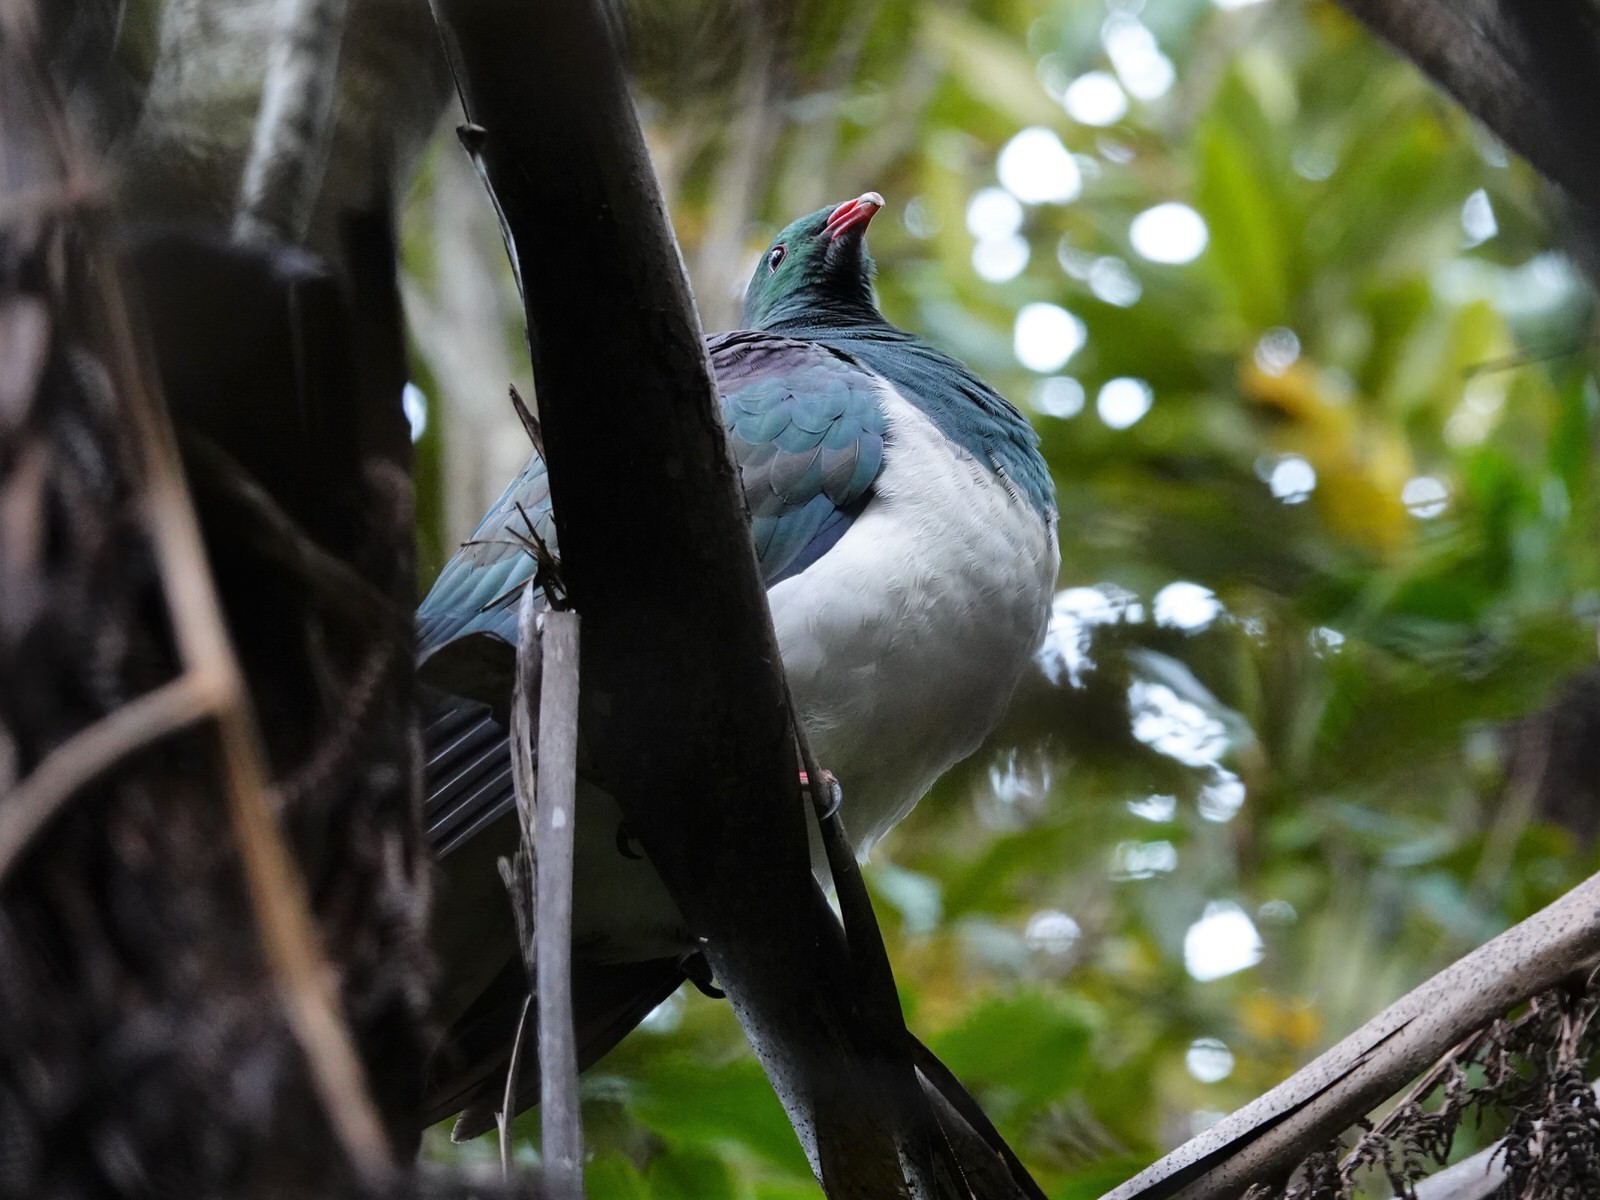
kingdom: Animalia
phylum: Chordata
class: Aves
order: Columbiformes
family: Columbidae
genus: Hemiphaga
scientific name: Hemiphaga novaeseelandiae
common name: New zealand pigeon
